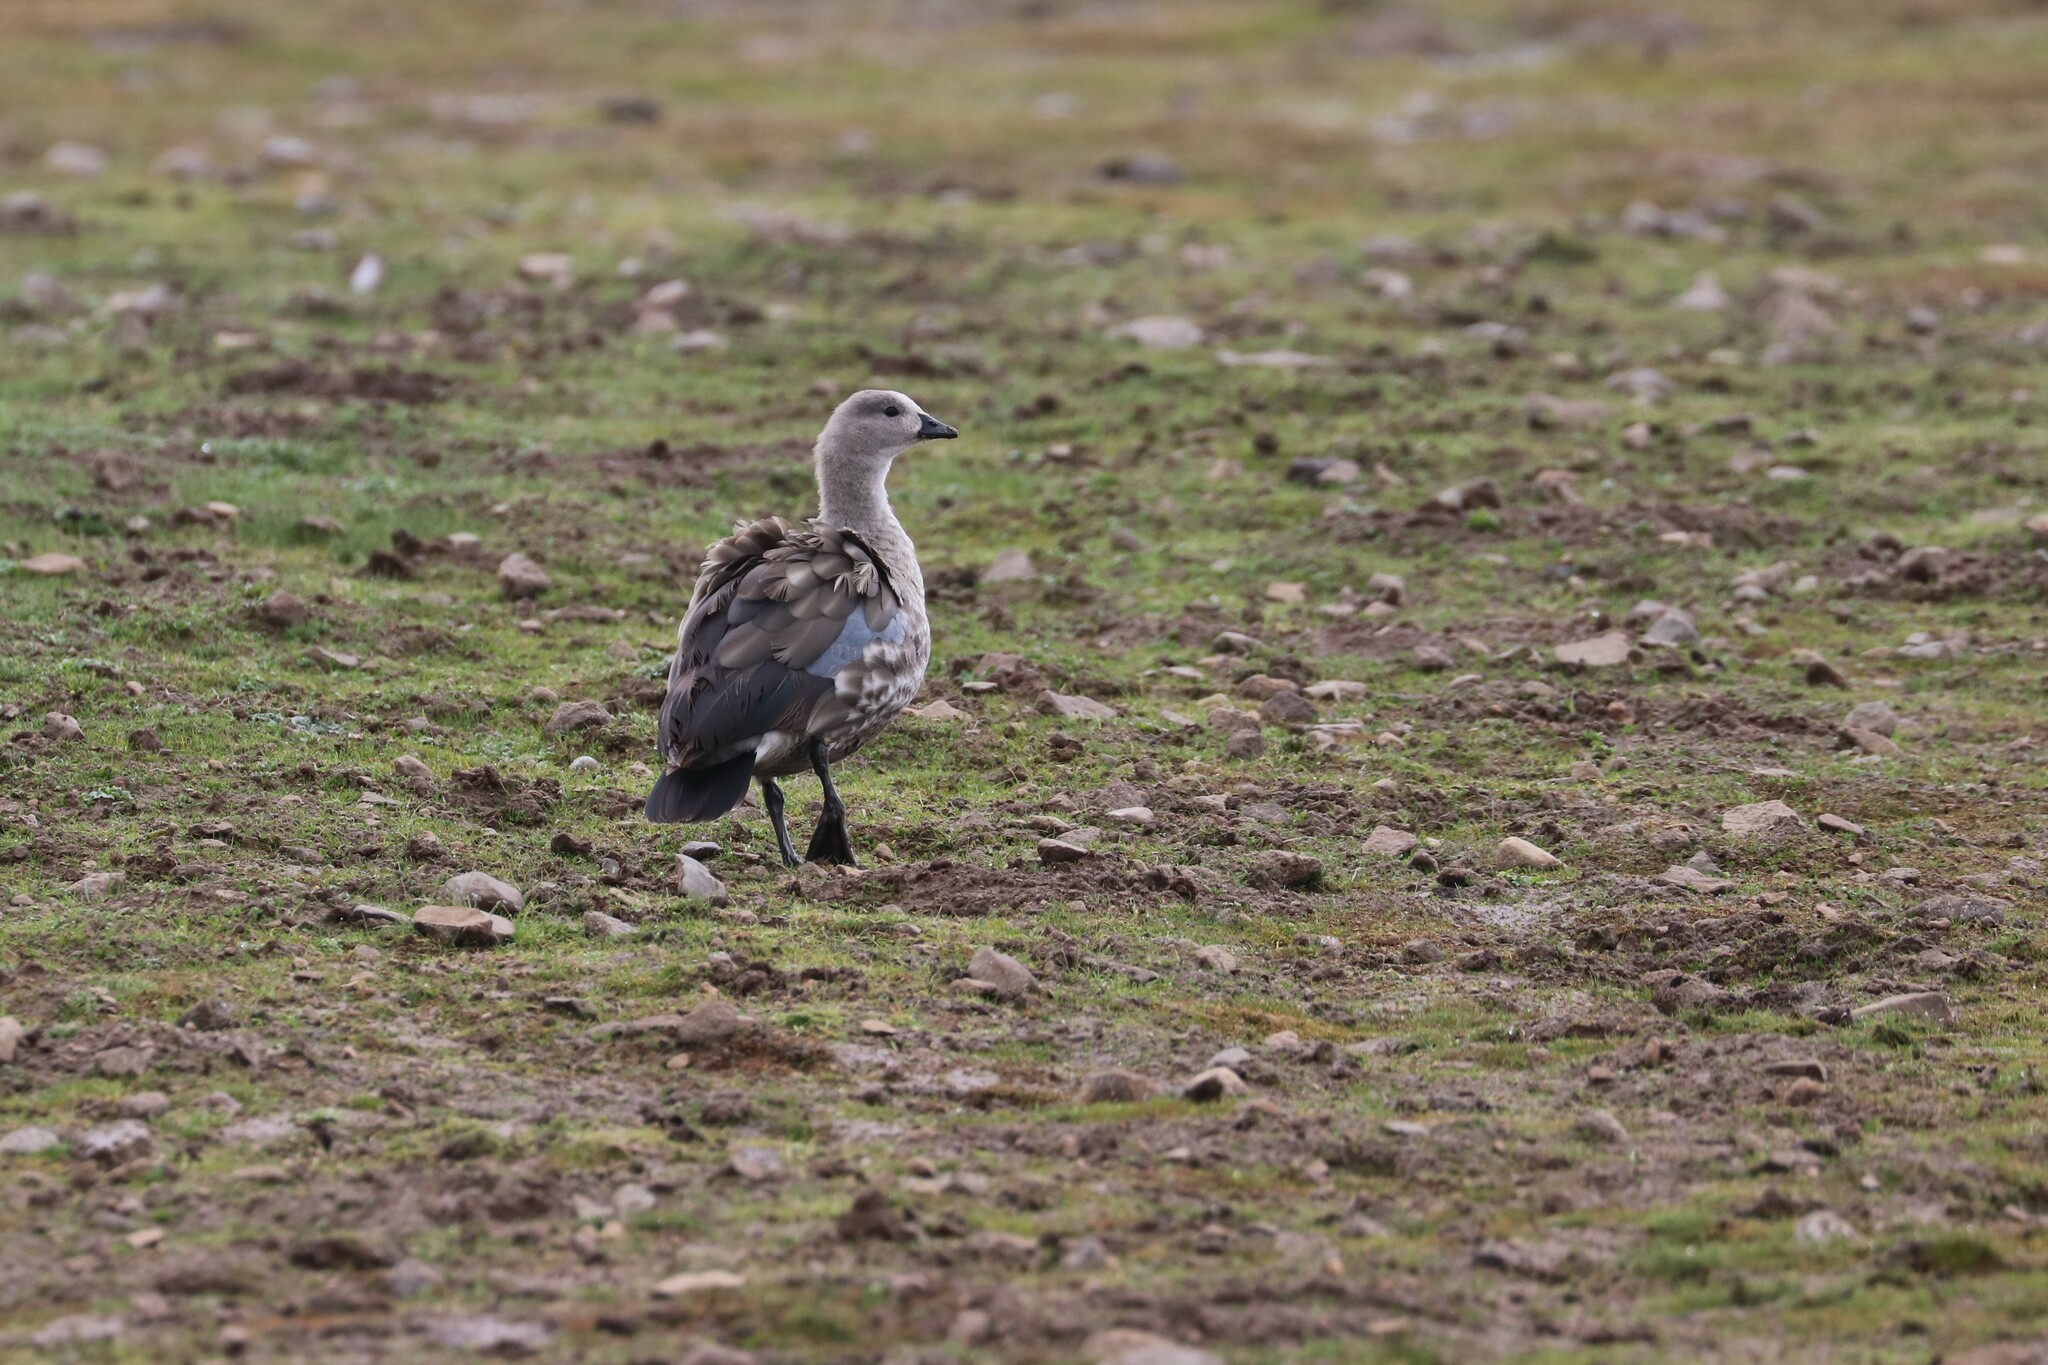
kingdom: Animalia
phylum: Chordata
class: Aves
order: Anseriformes
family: Anatidae
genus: Cyanochen
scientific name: Cyanochen cyanoptera
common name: Blue-winged goose
